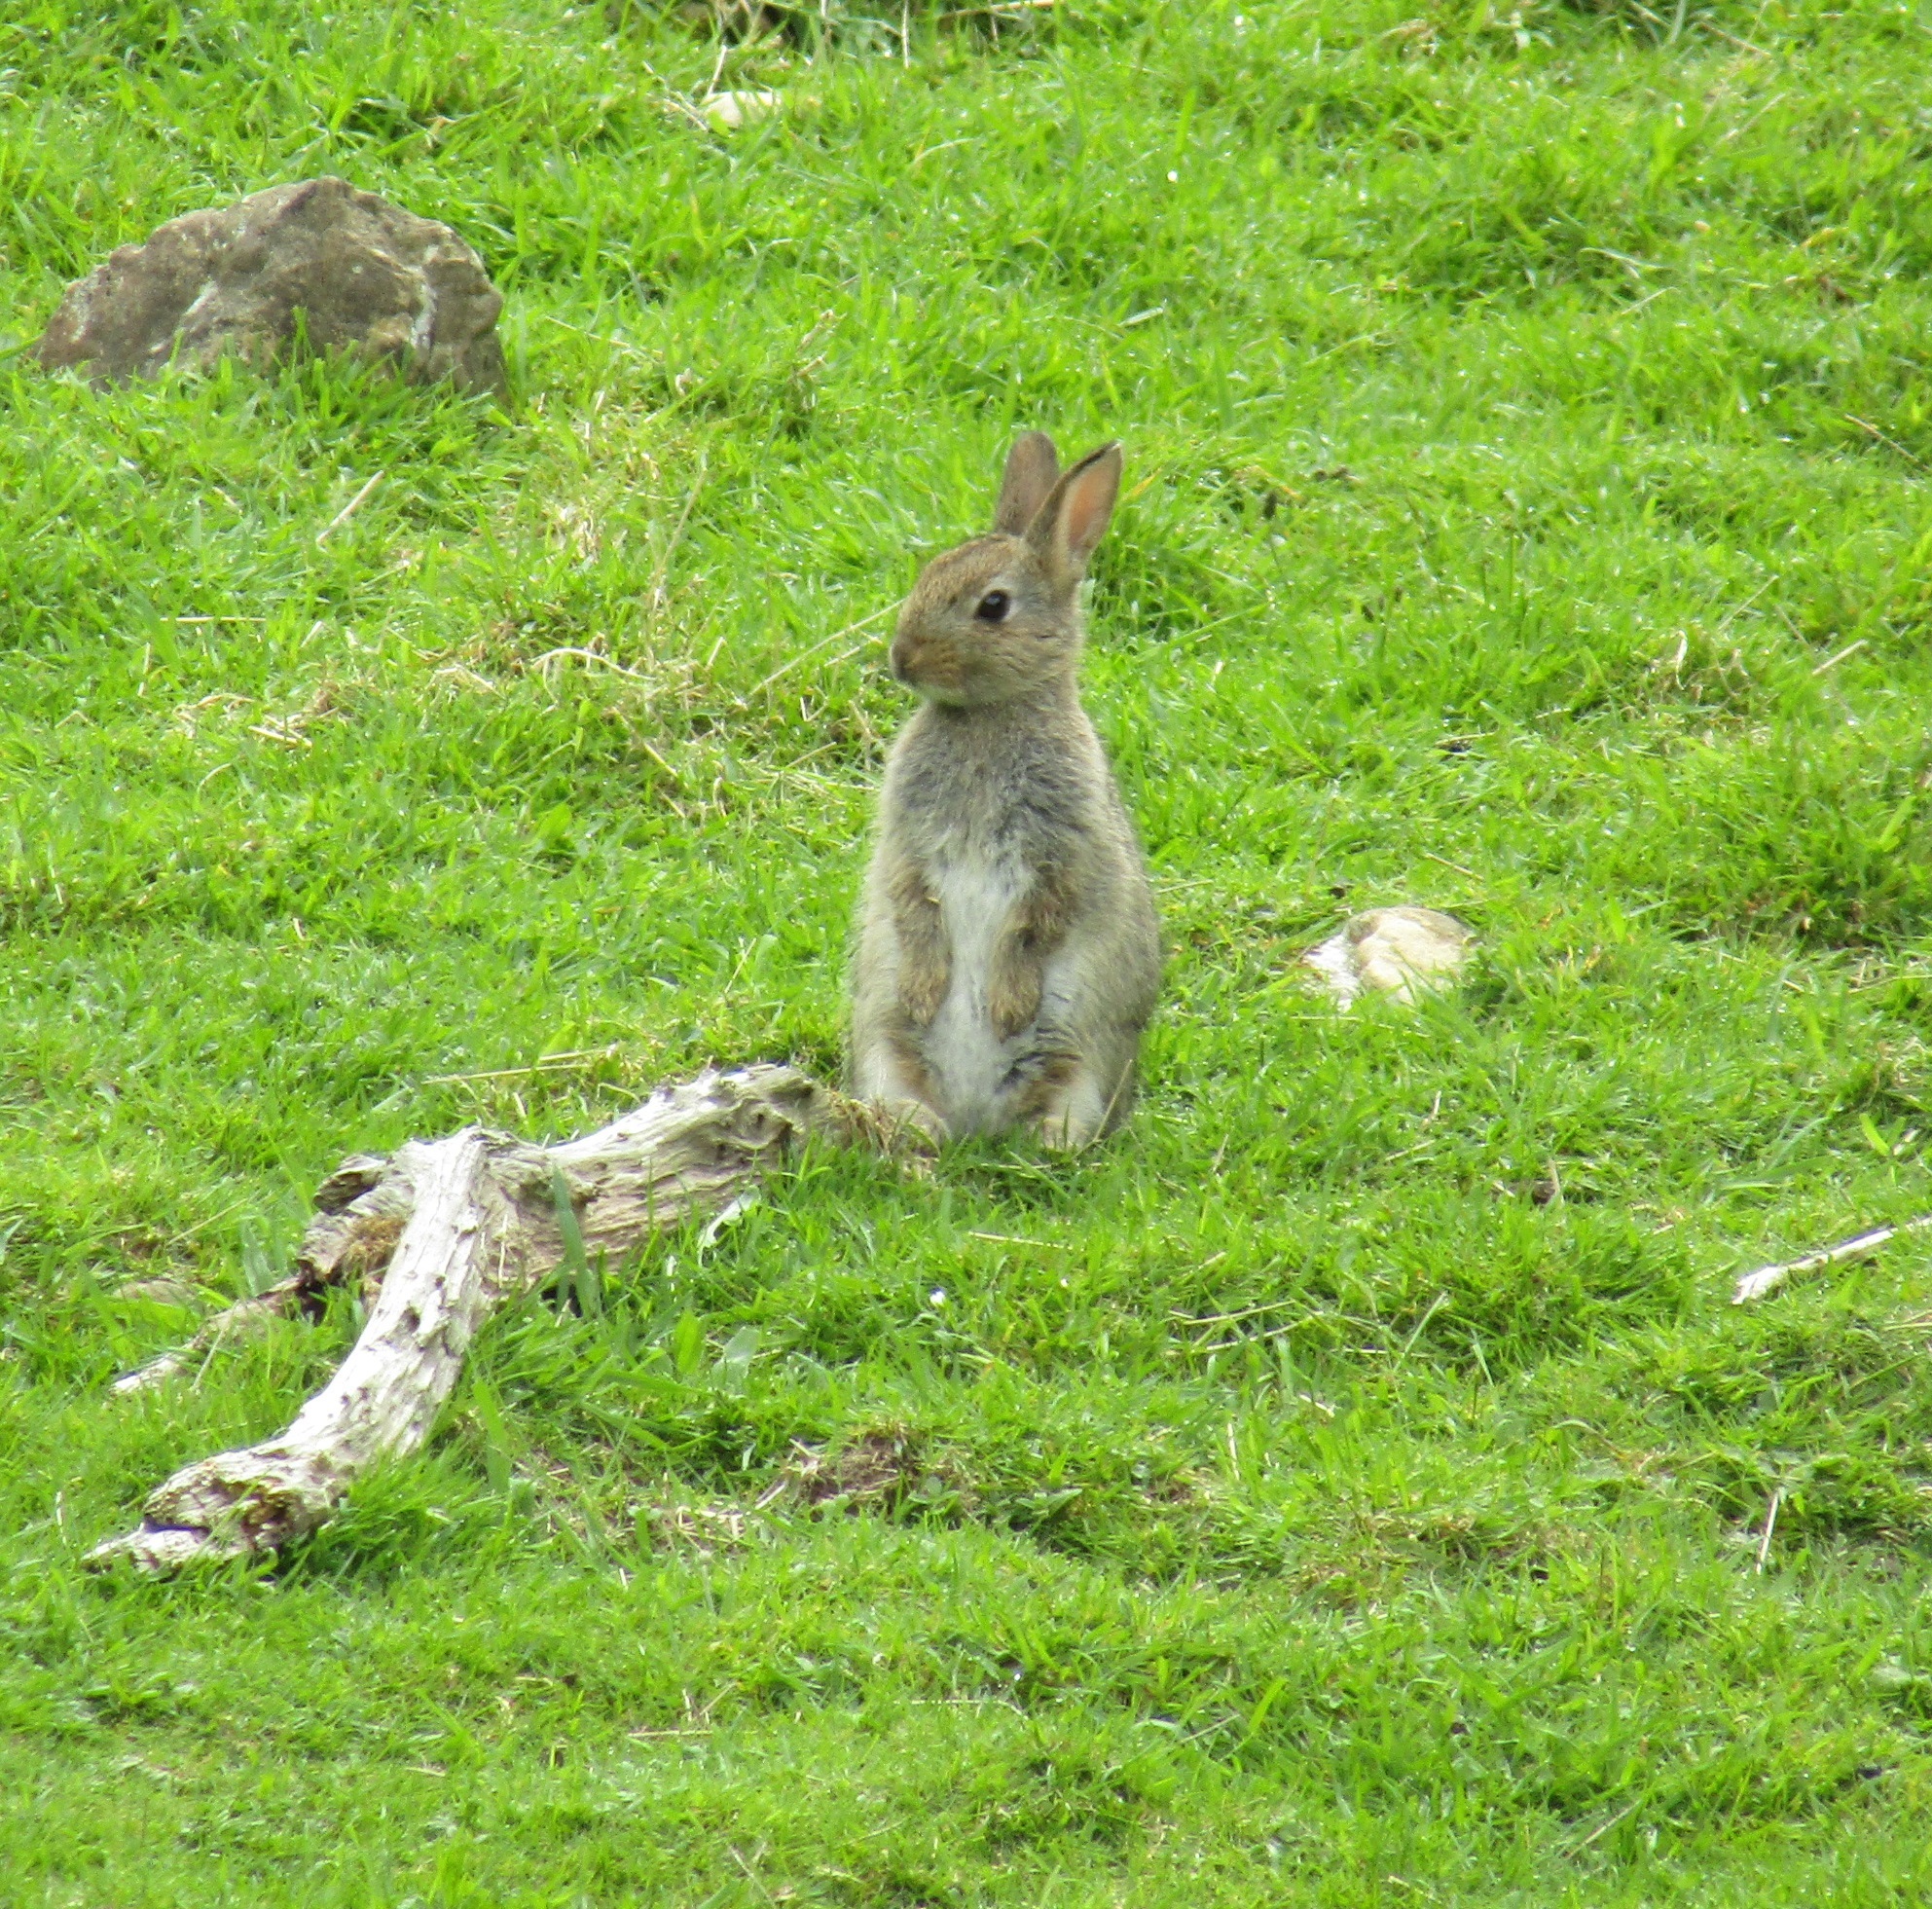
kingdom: Animalia
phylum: Chordata
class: Mammalia
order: Lagomorpha
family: Leporidae
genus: Oryctolagus
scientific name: Oryctolagus cuniculus
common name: European rabbit
